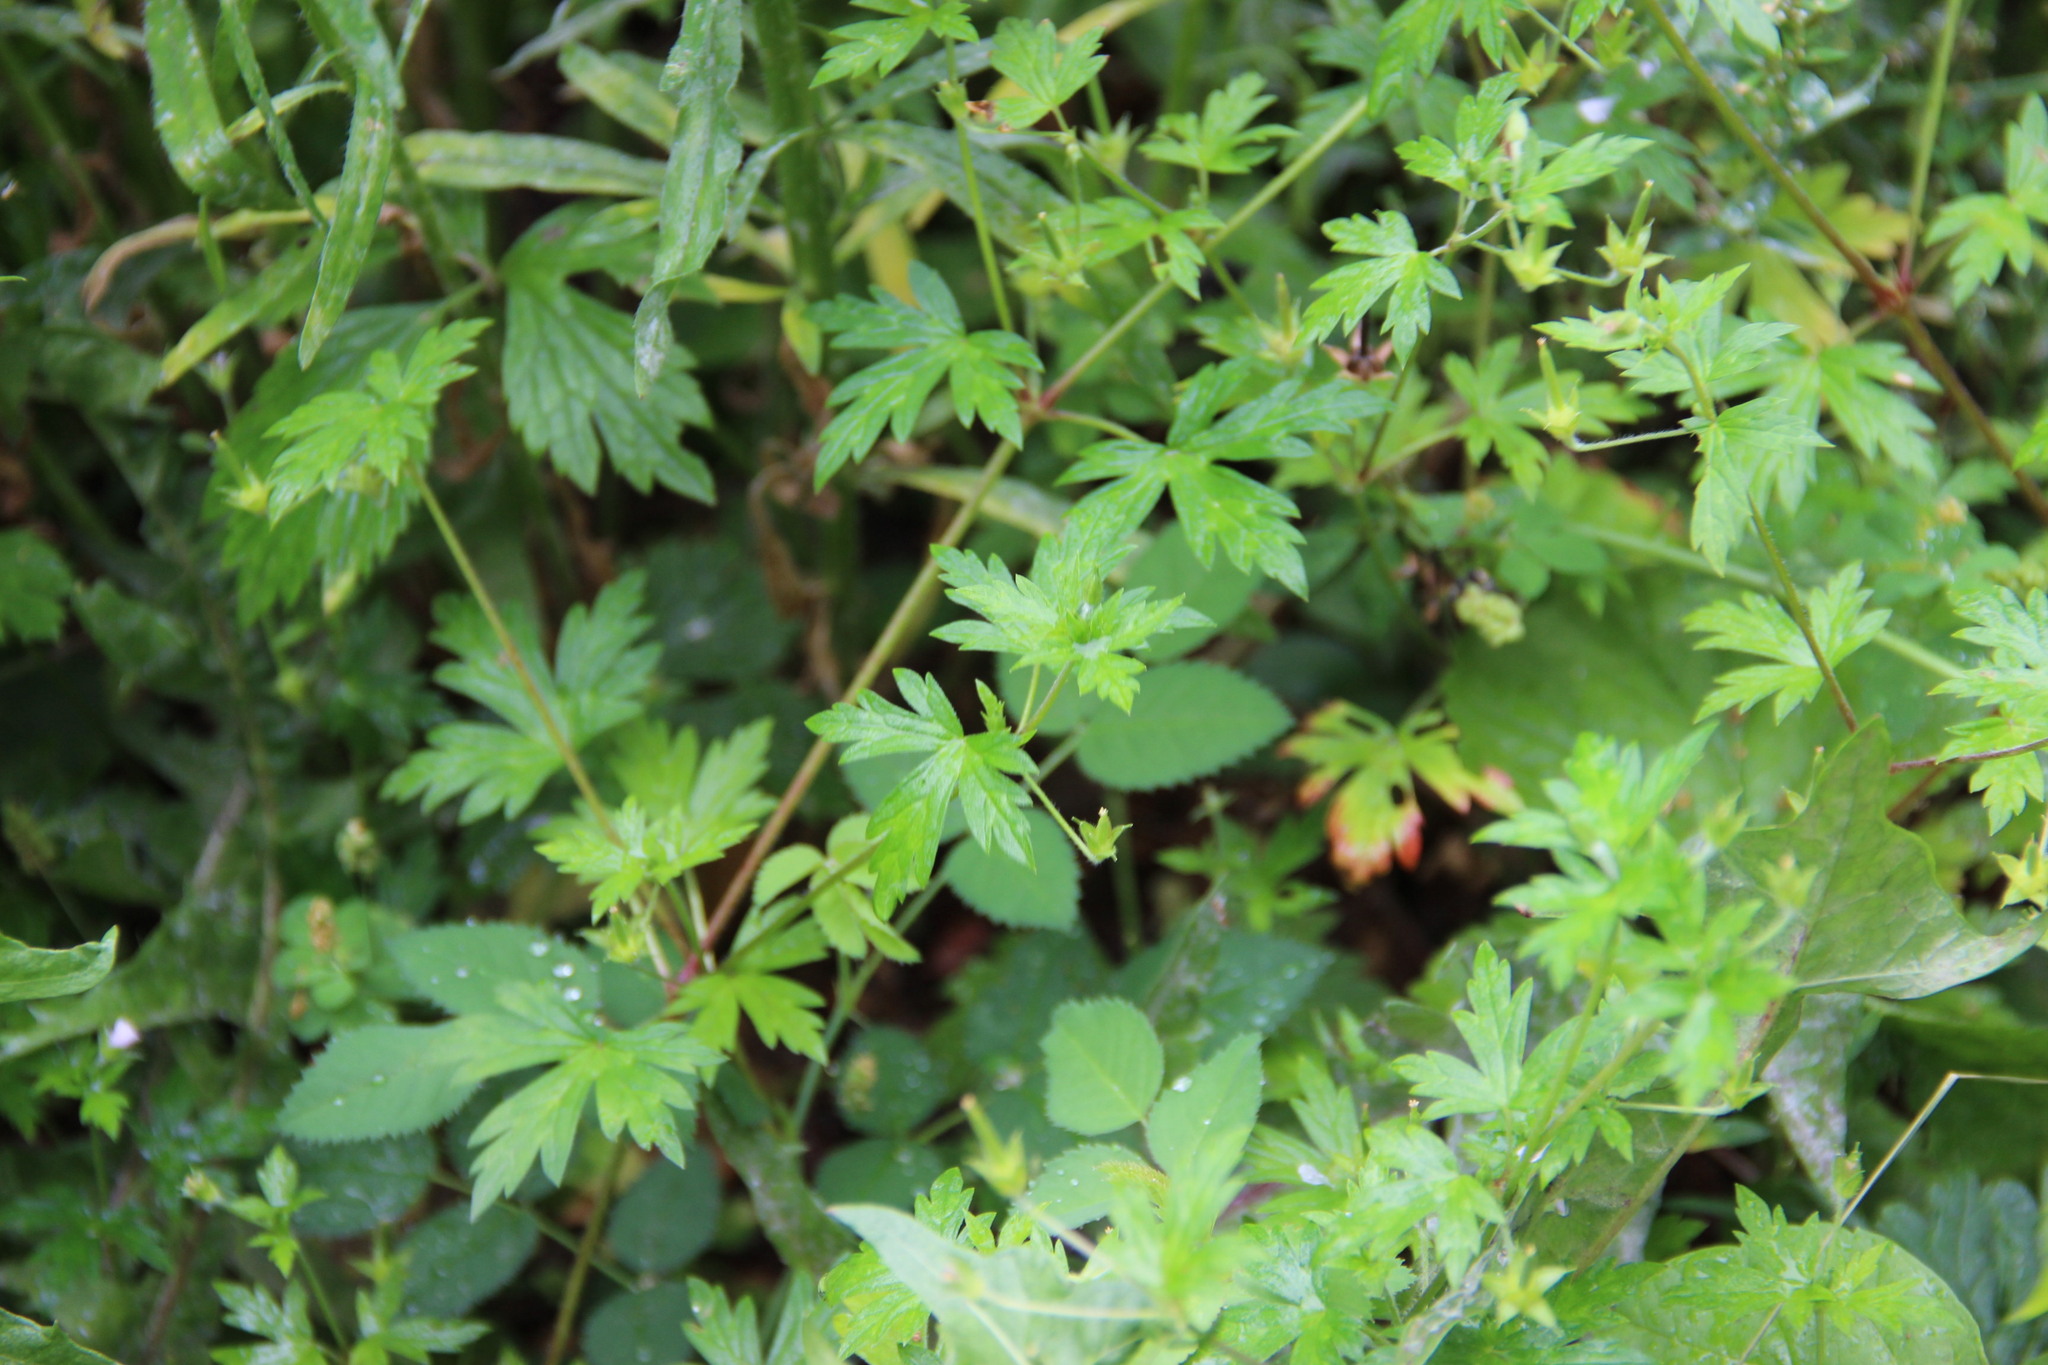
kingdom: Plantae
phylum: Tracheophyta
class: Magnoliopsida
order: Geraniales
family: Geraniaceae
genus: Geranium
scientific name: Geranium sibiricum
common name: Siberian crane's-bill
